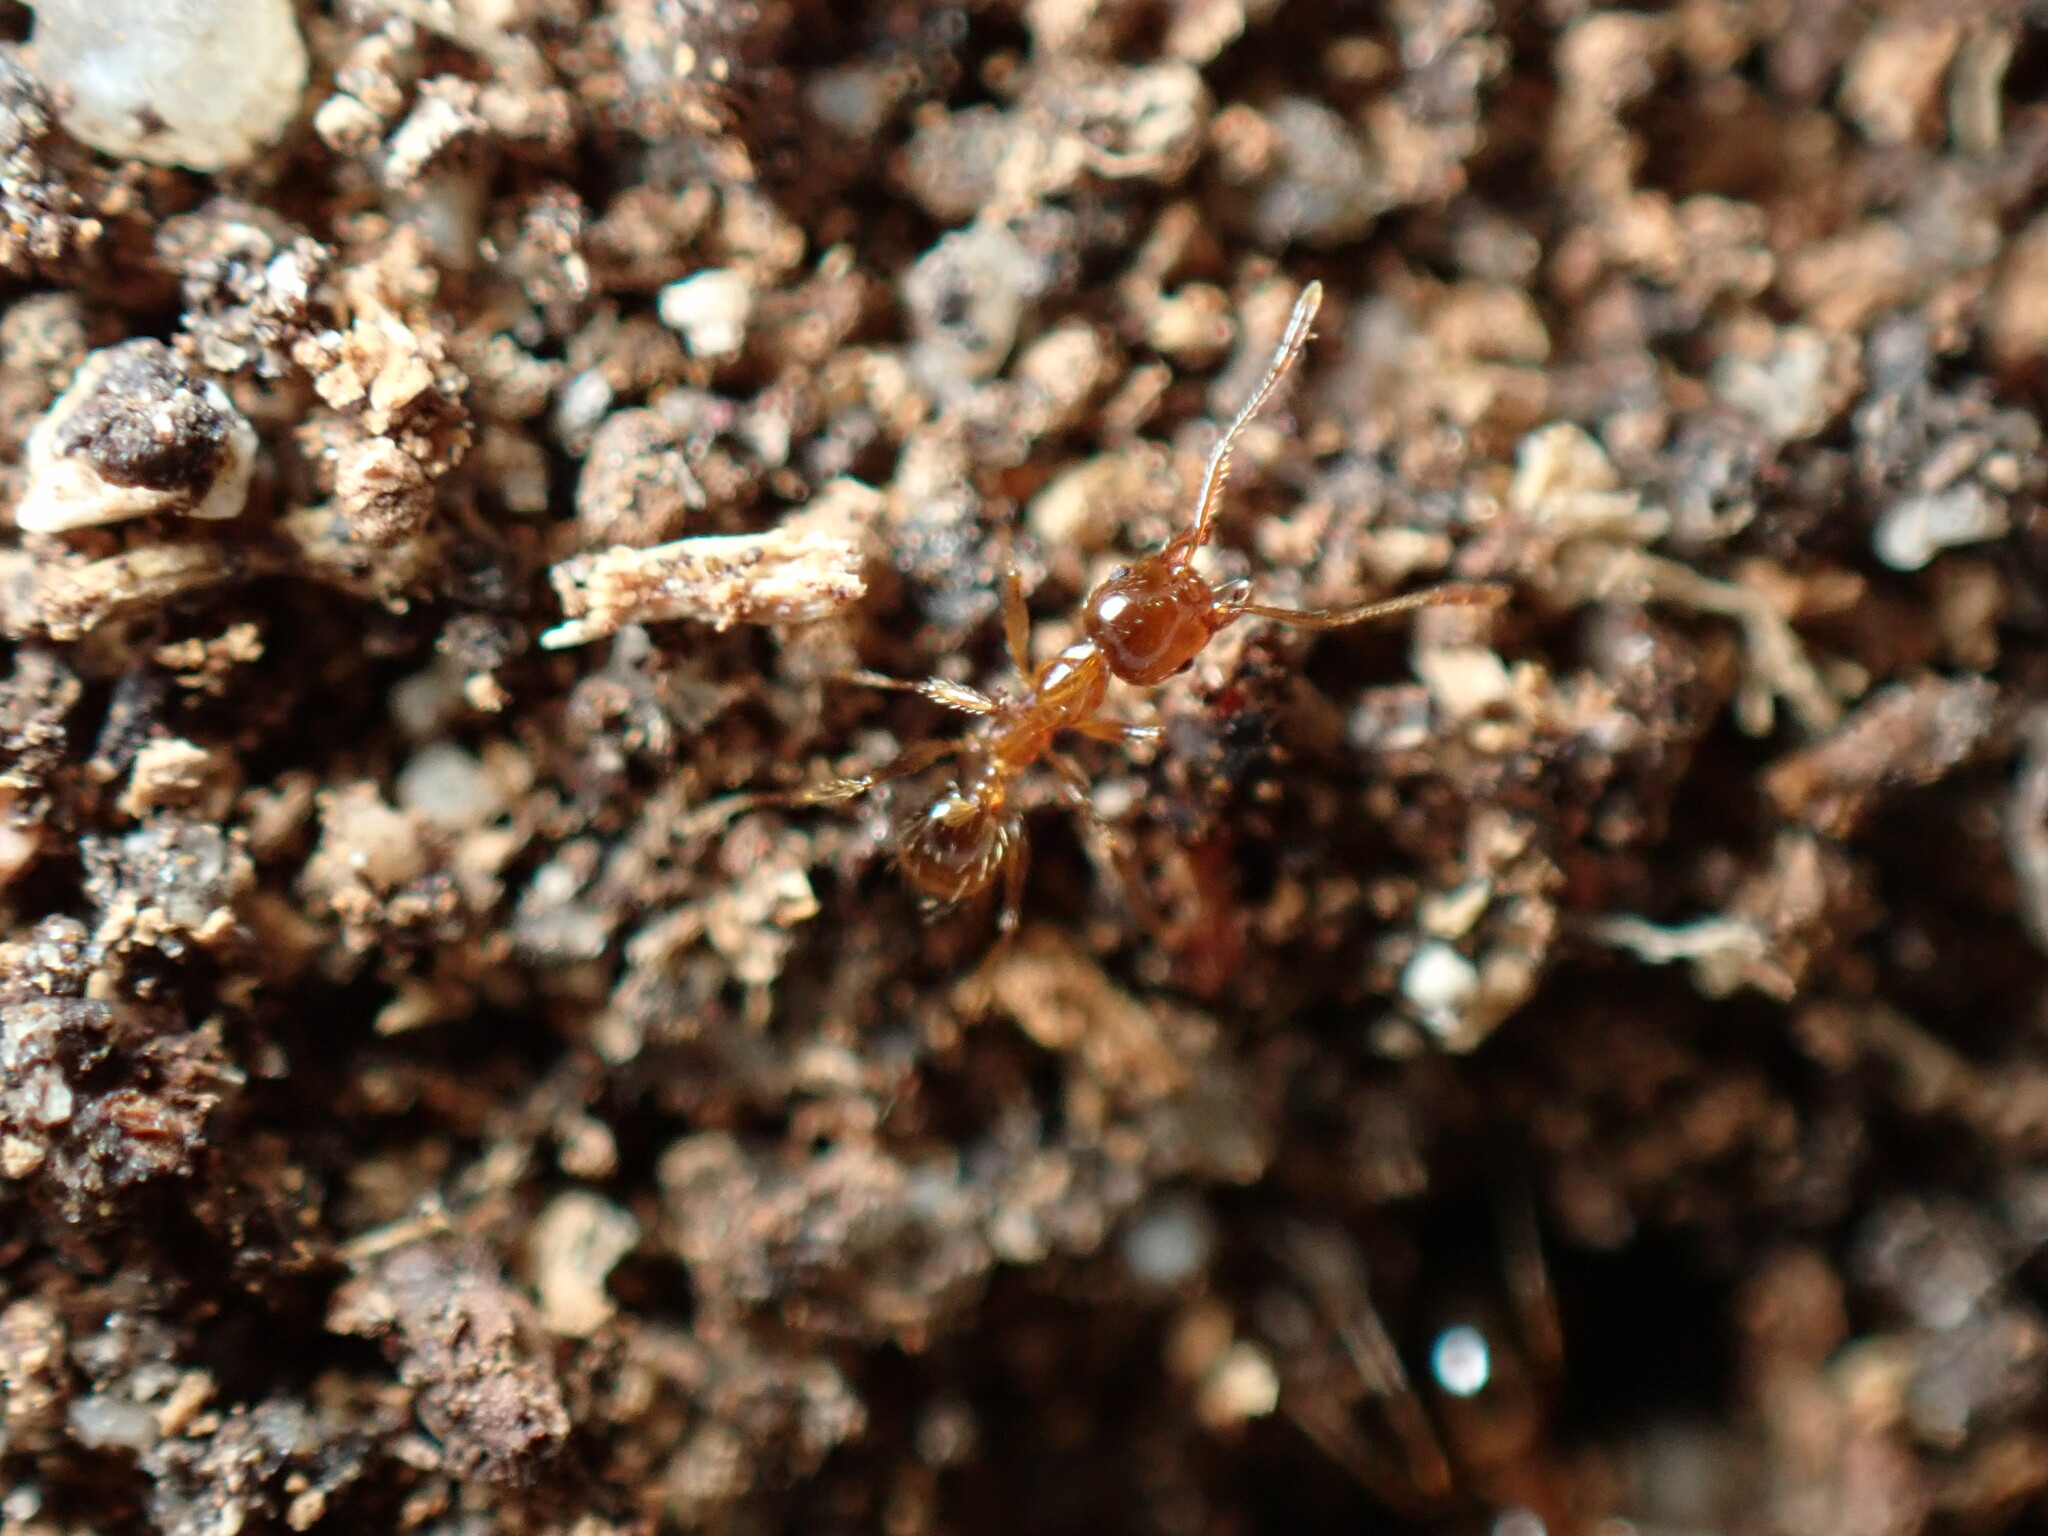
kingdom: Animalia
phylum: Arthropoda
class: Insecta
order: Hymenoptera
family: Formicidae
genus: Pheidole
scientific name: Pheidole pallidula
